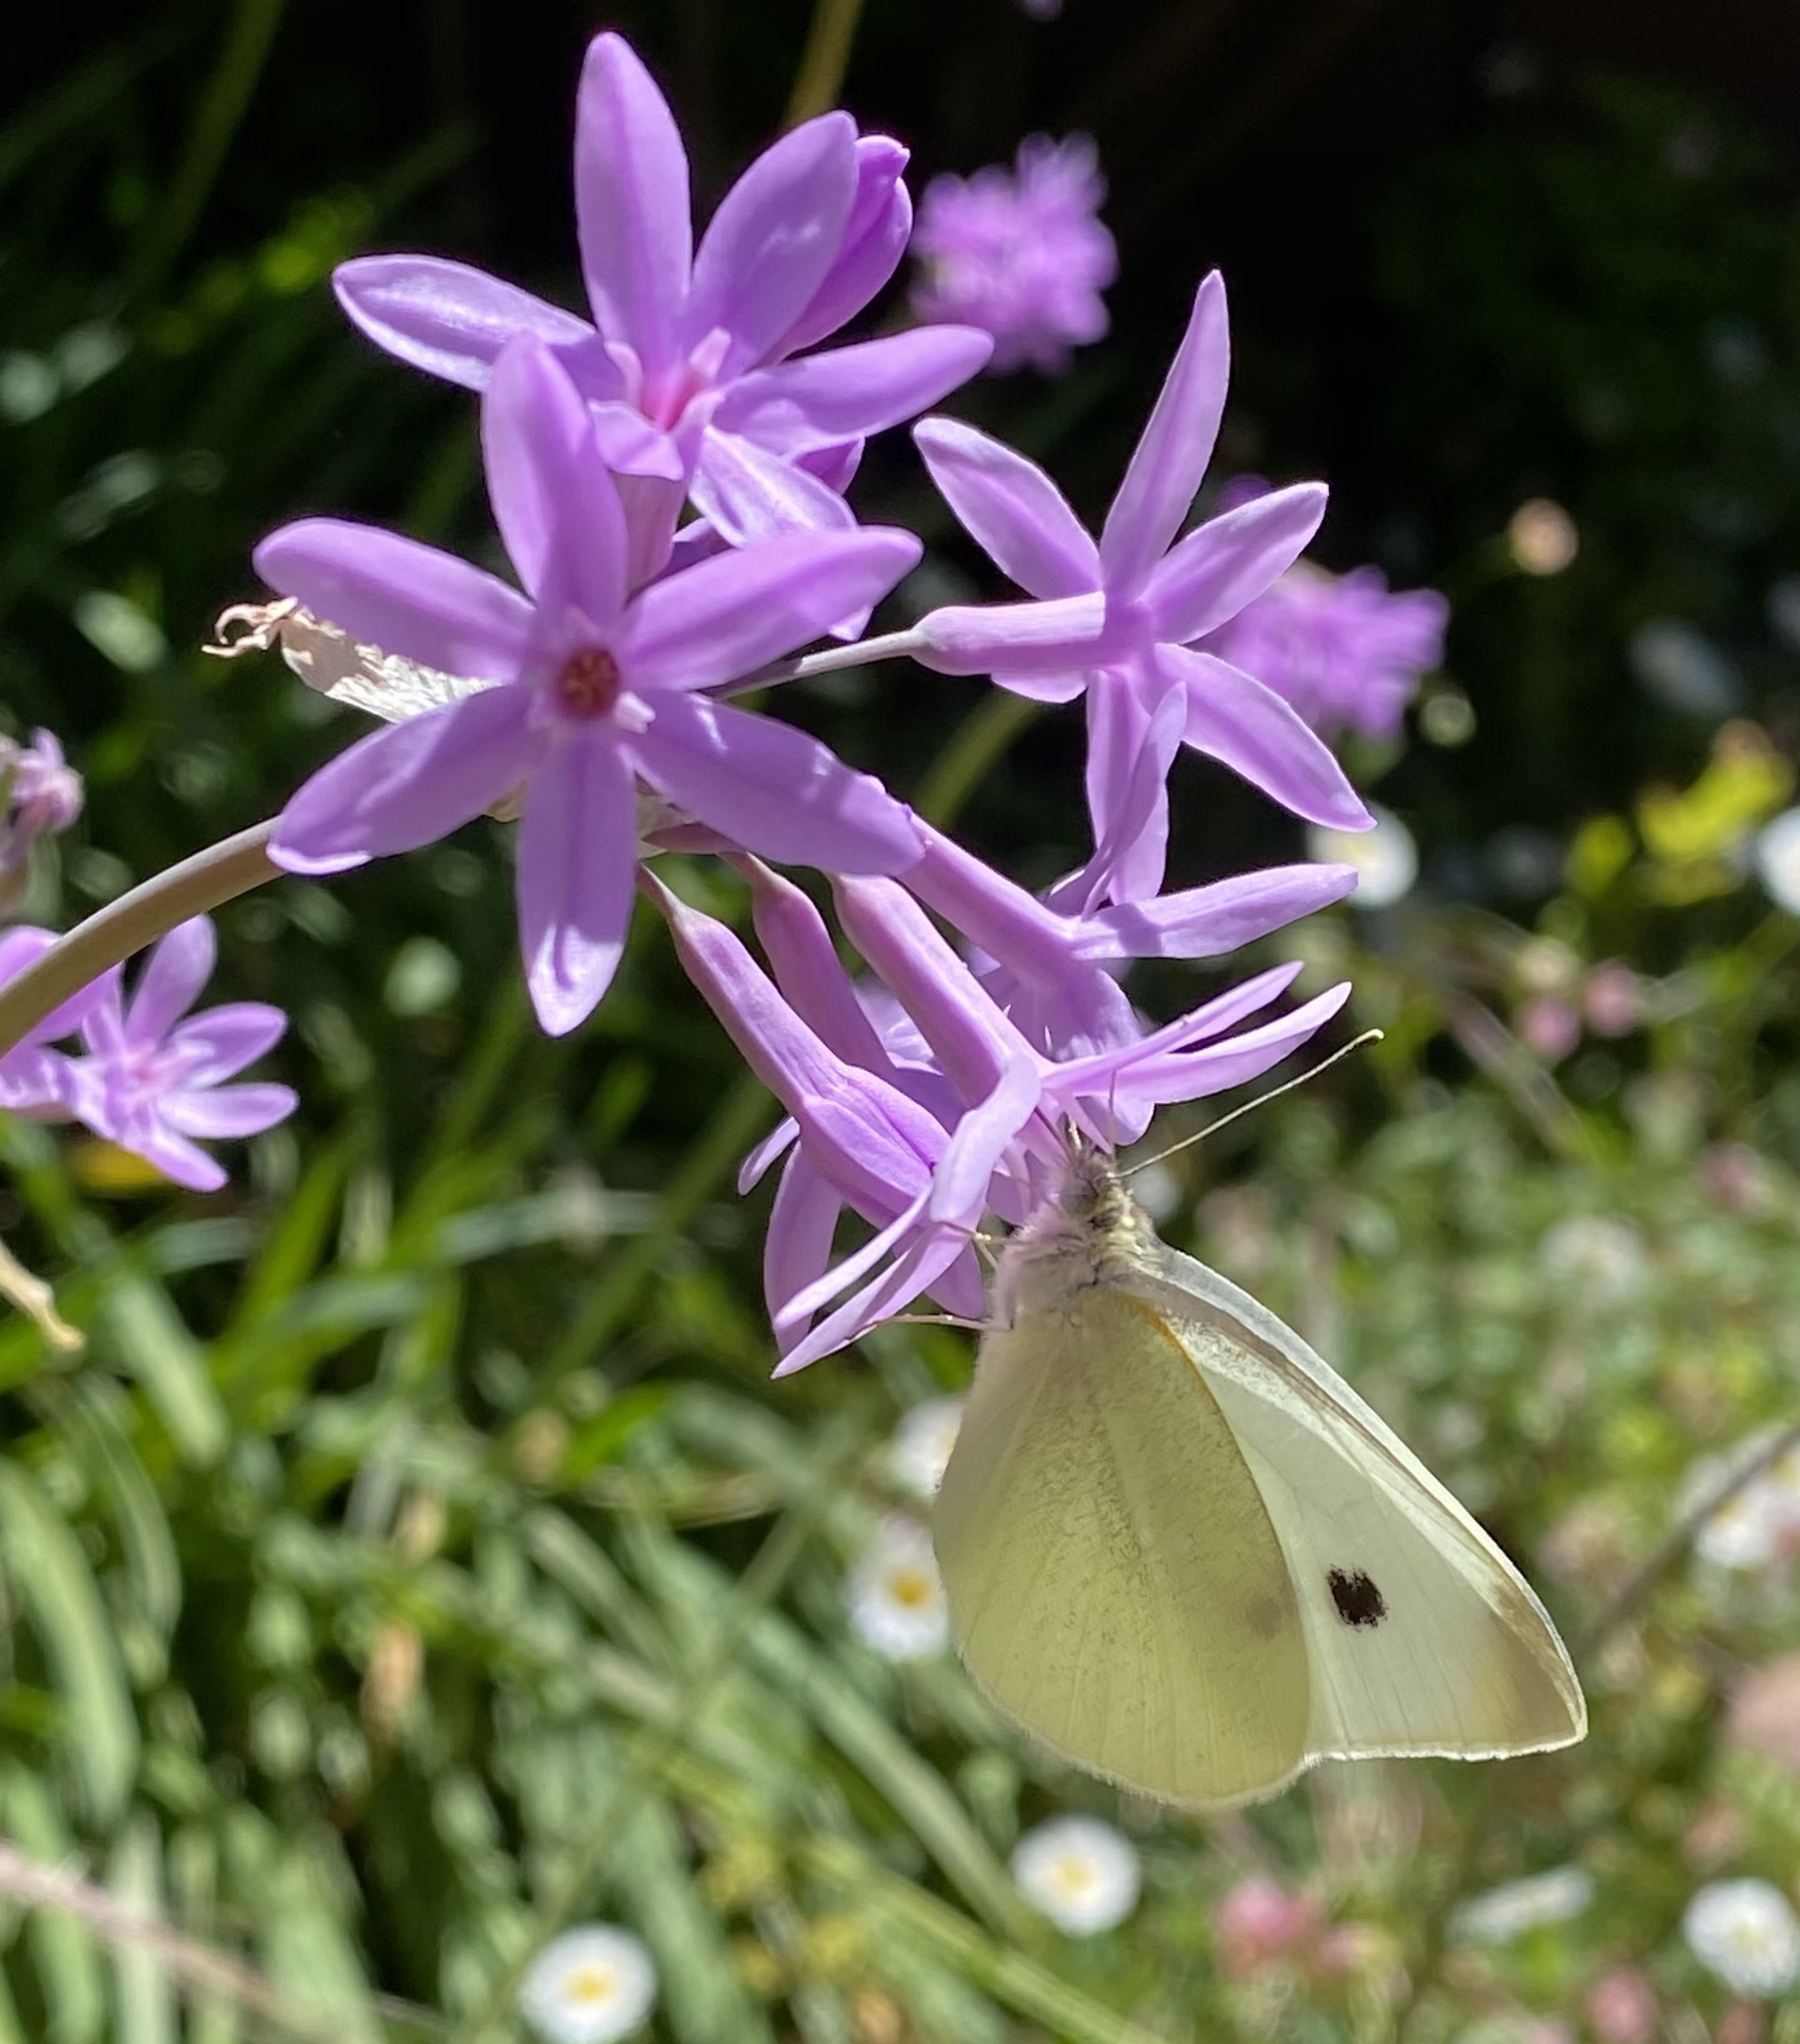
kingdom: Animalia
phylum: Arthropoda
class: Insecta
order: Lepidoptera
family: Pieridae
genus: Pieris
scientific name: Pieris rapae
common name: Small white
